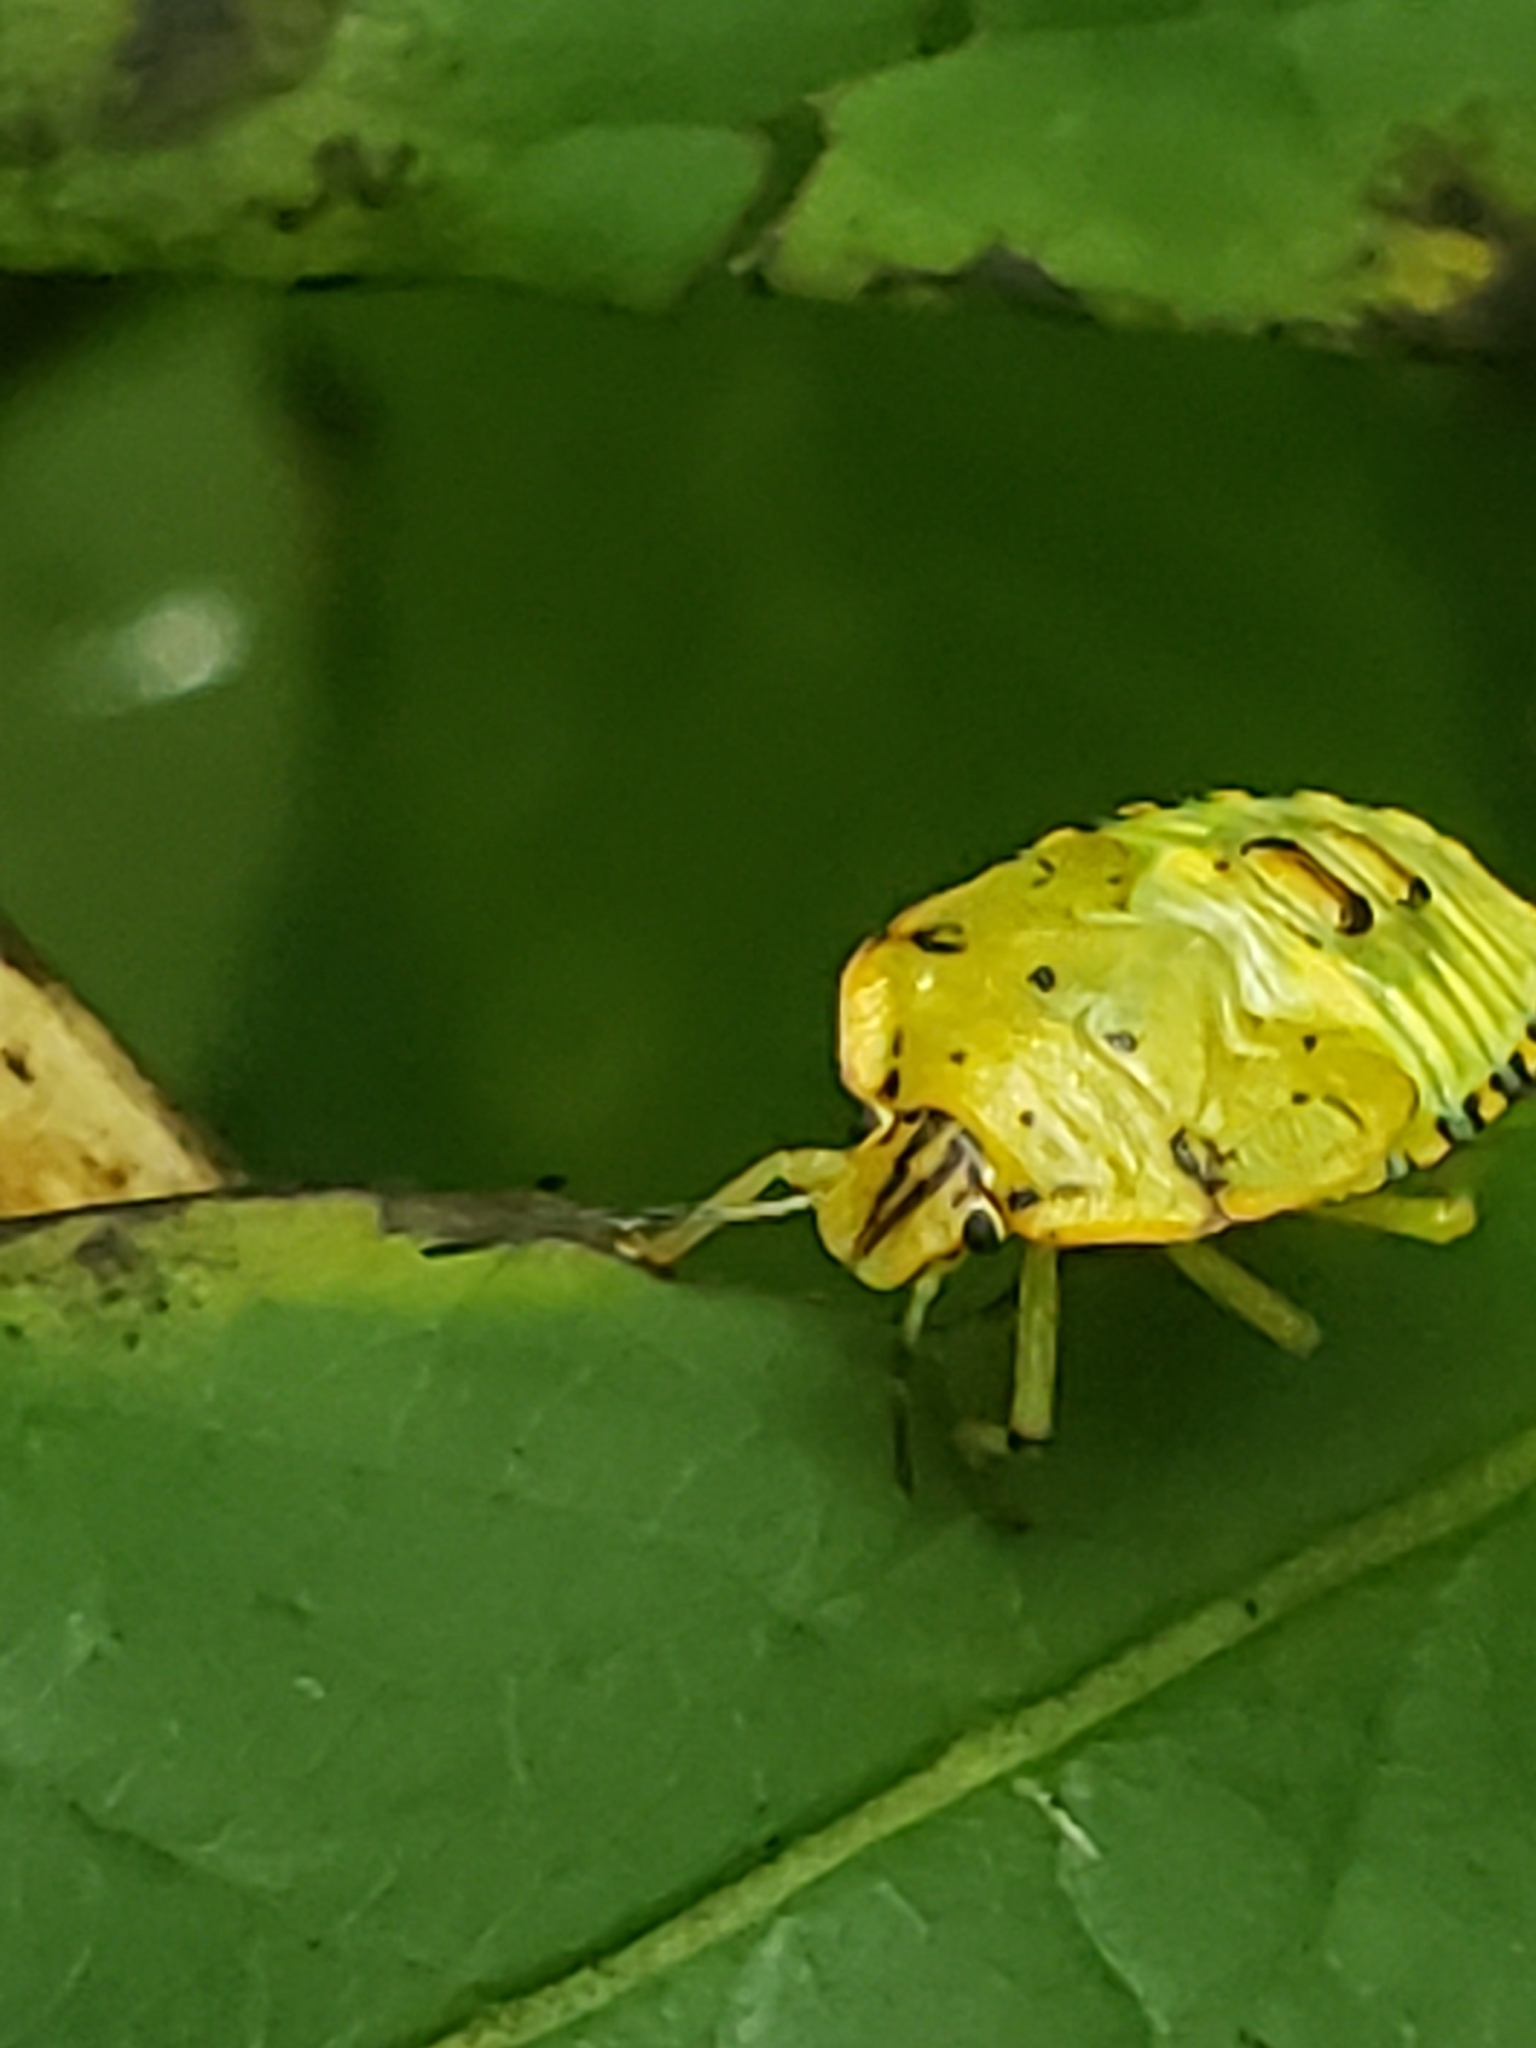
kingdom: Animalia
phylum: Arthropoda
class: Insecta
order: Hemiptera
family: Pentatomidae
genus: Chinavia
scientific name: Chinavia hilaris
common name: Green stink bug
